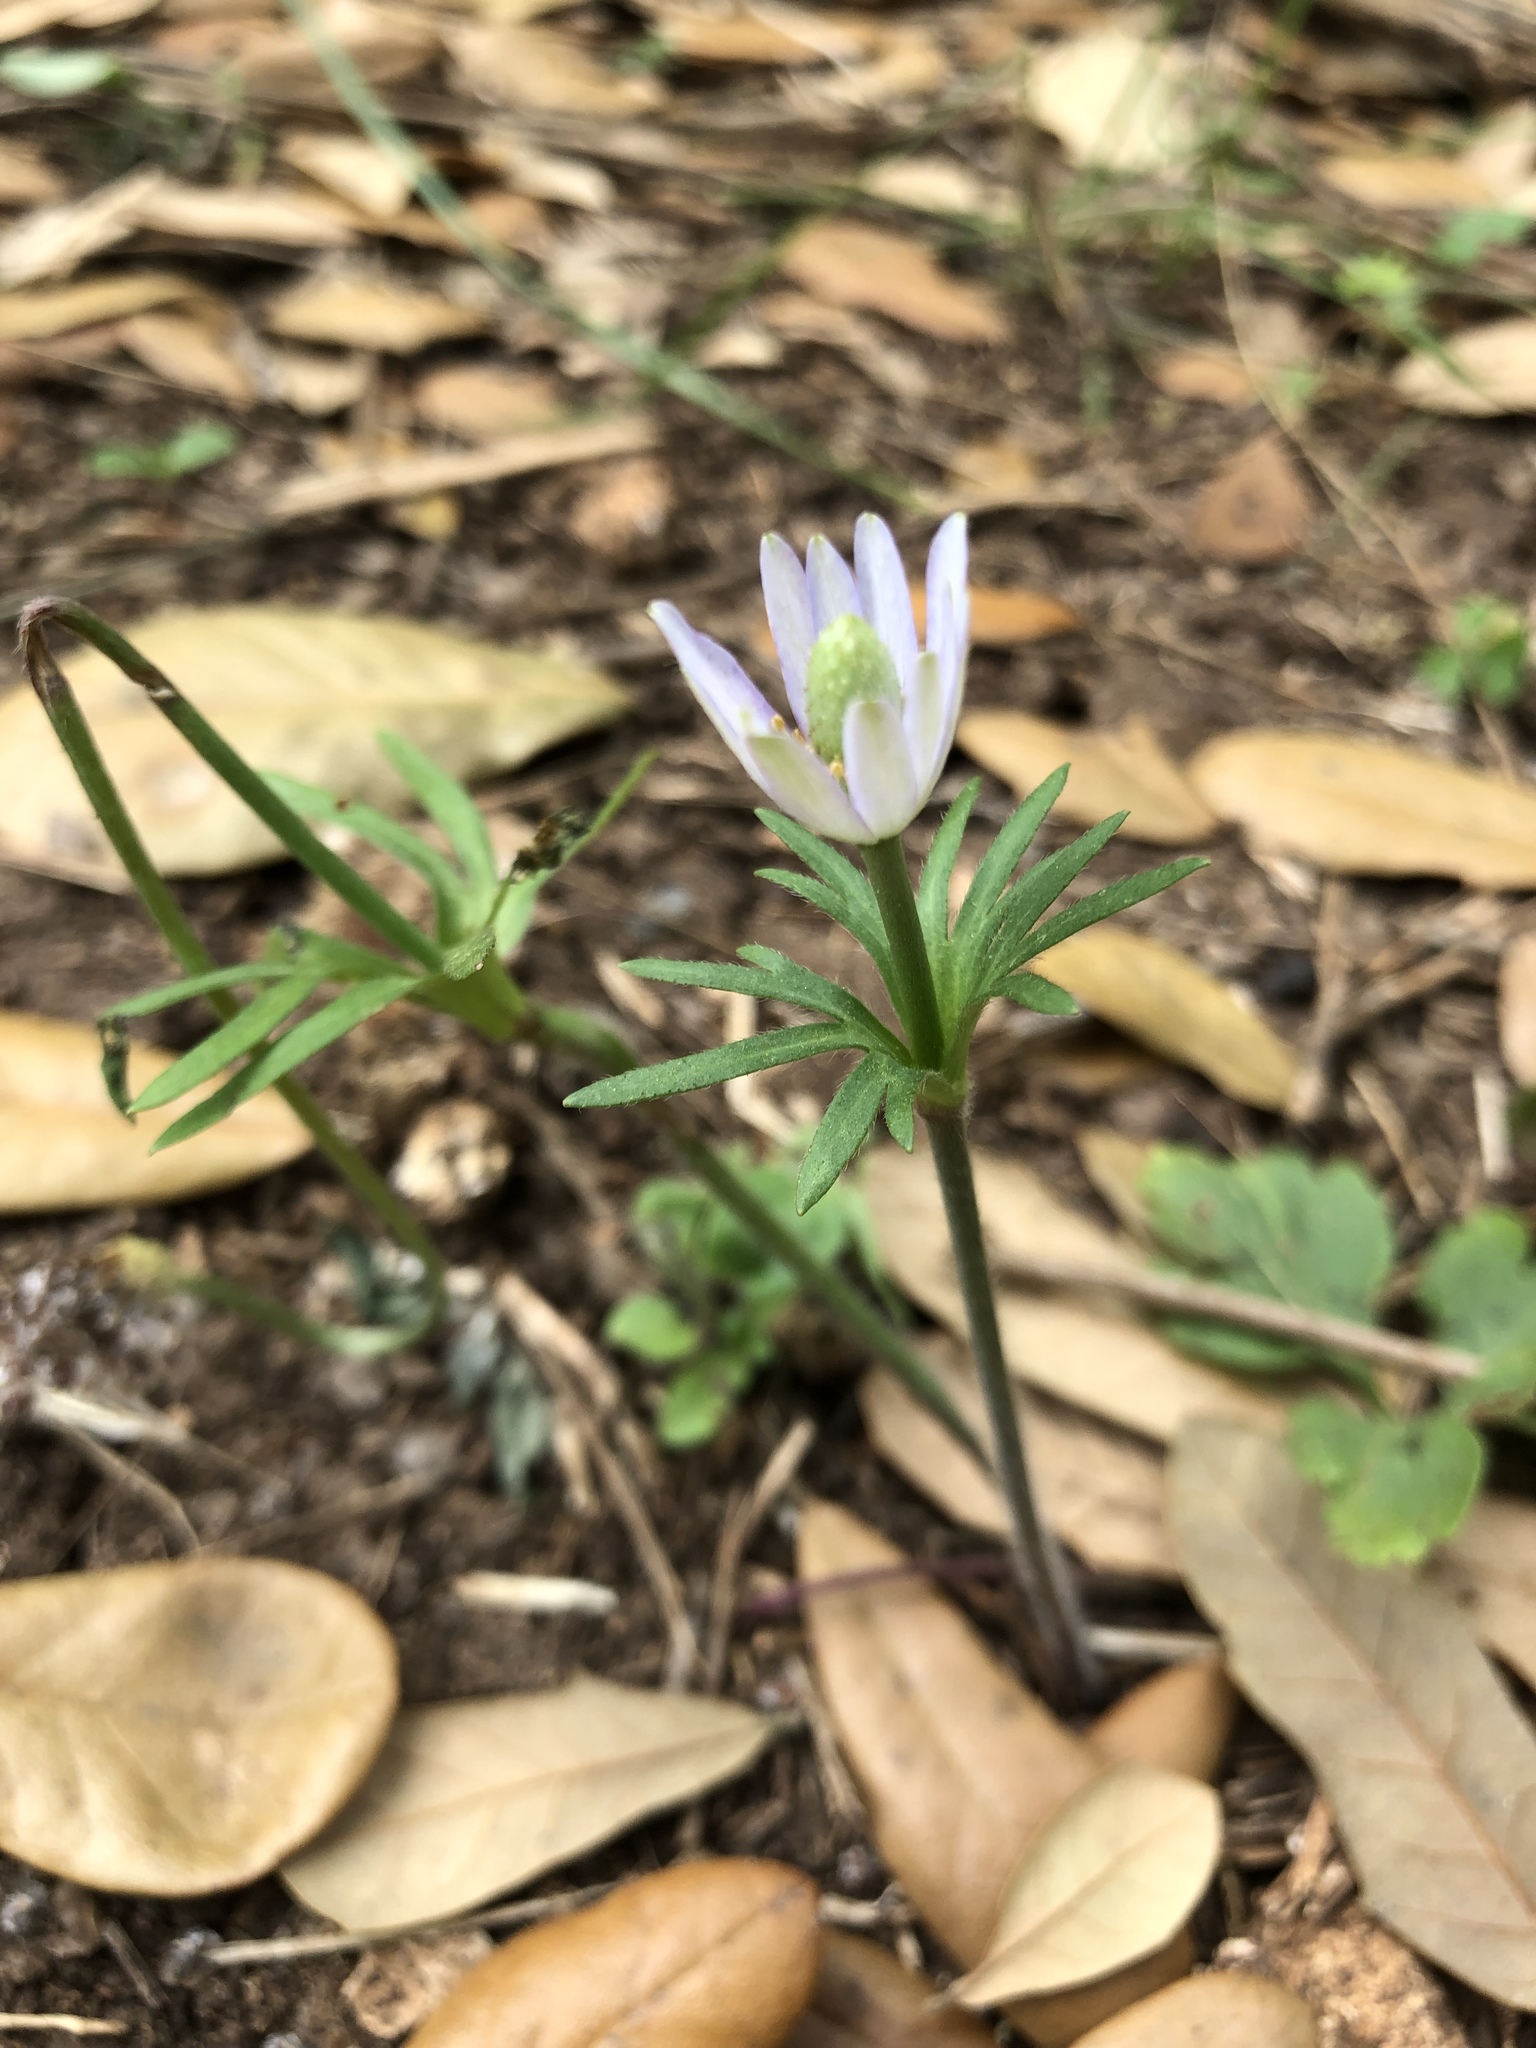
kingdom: Plantae
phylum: Tracheophyta
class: Magnoliopsida
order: Ranunculales
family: Ranunculaceae
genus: Anemone
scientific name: Anemone berlandieri
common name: Ten-petal anemone
